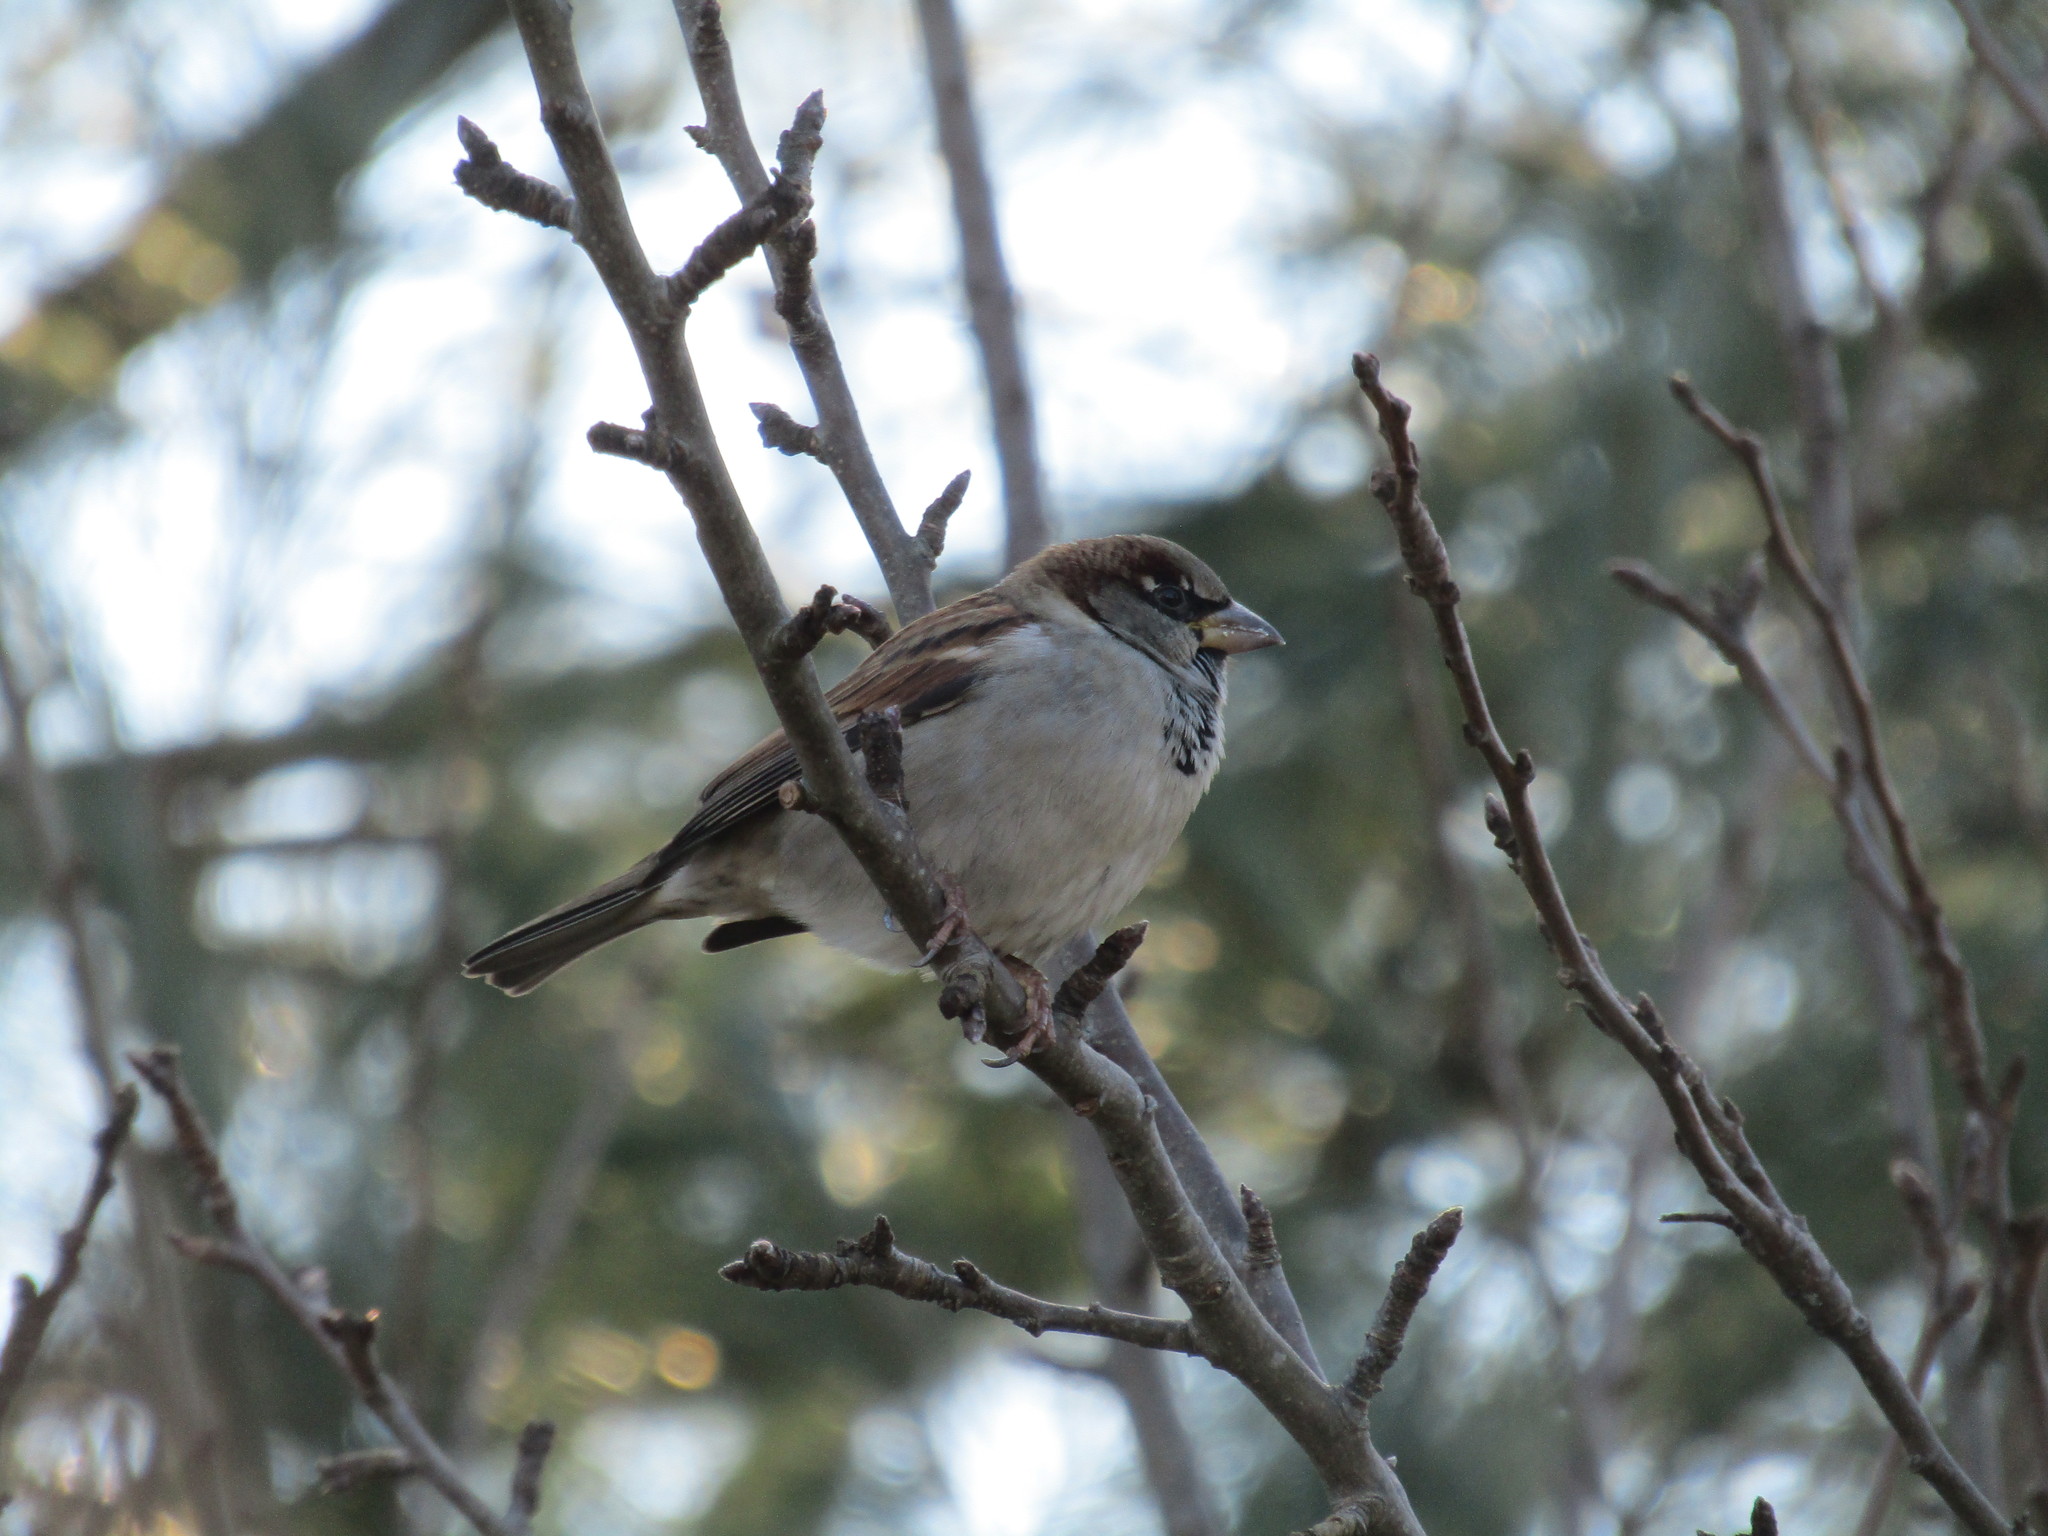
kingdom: Animalia
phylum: Chordata
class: Aves
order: Passeriformes
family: Passeridae
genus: Passer
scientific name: Passer domesticus
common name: House sparrow
